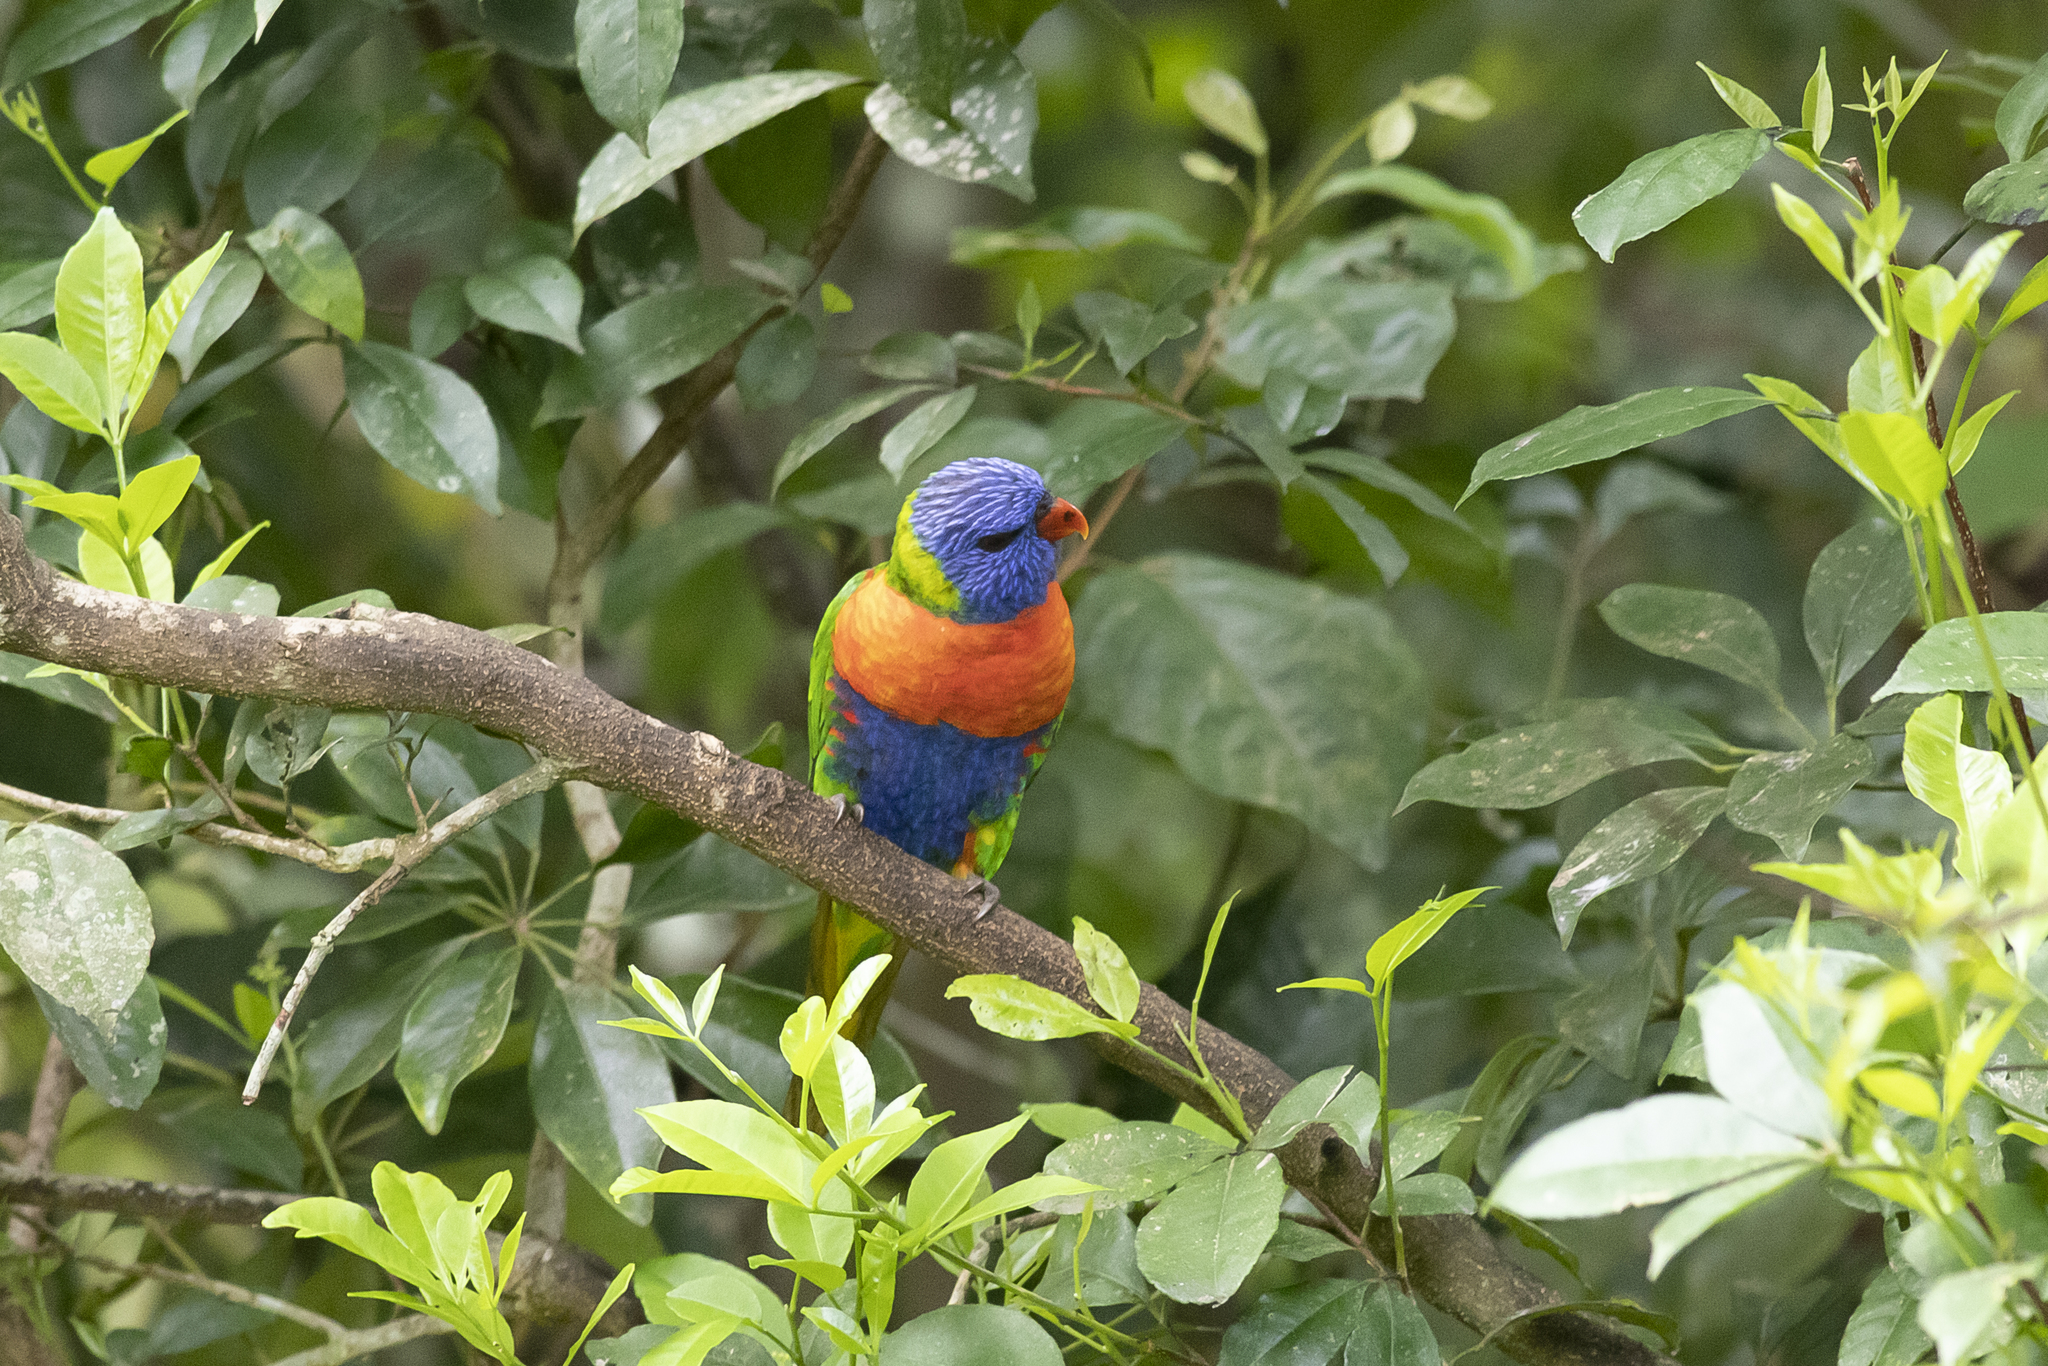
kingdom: Animalia
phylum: Chordata
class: Aves
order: Psittaciformes
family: Psittacidae
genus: Trichoglossus
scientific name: Trichoglossus haematodus
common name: Coconut lorikeet
